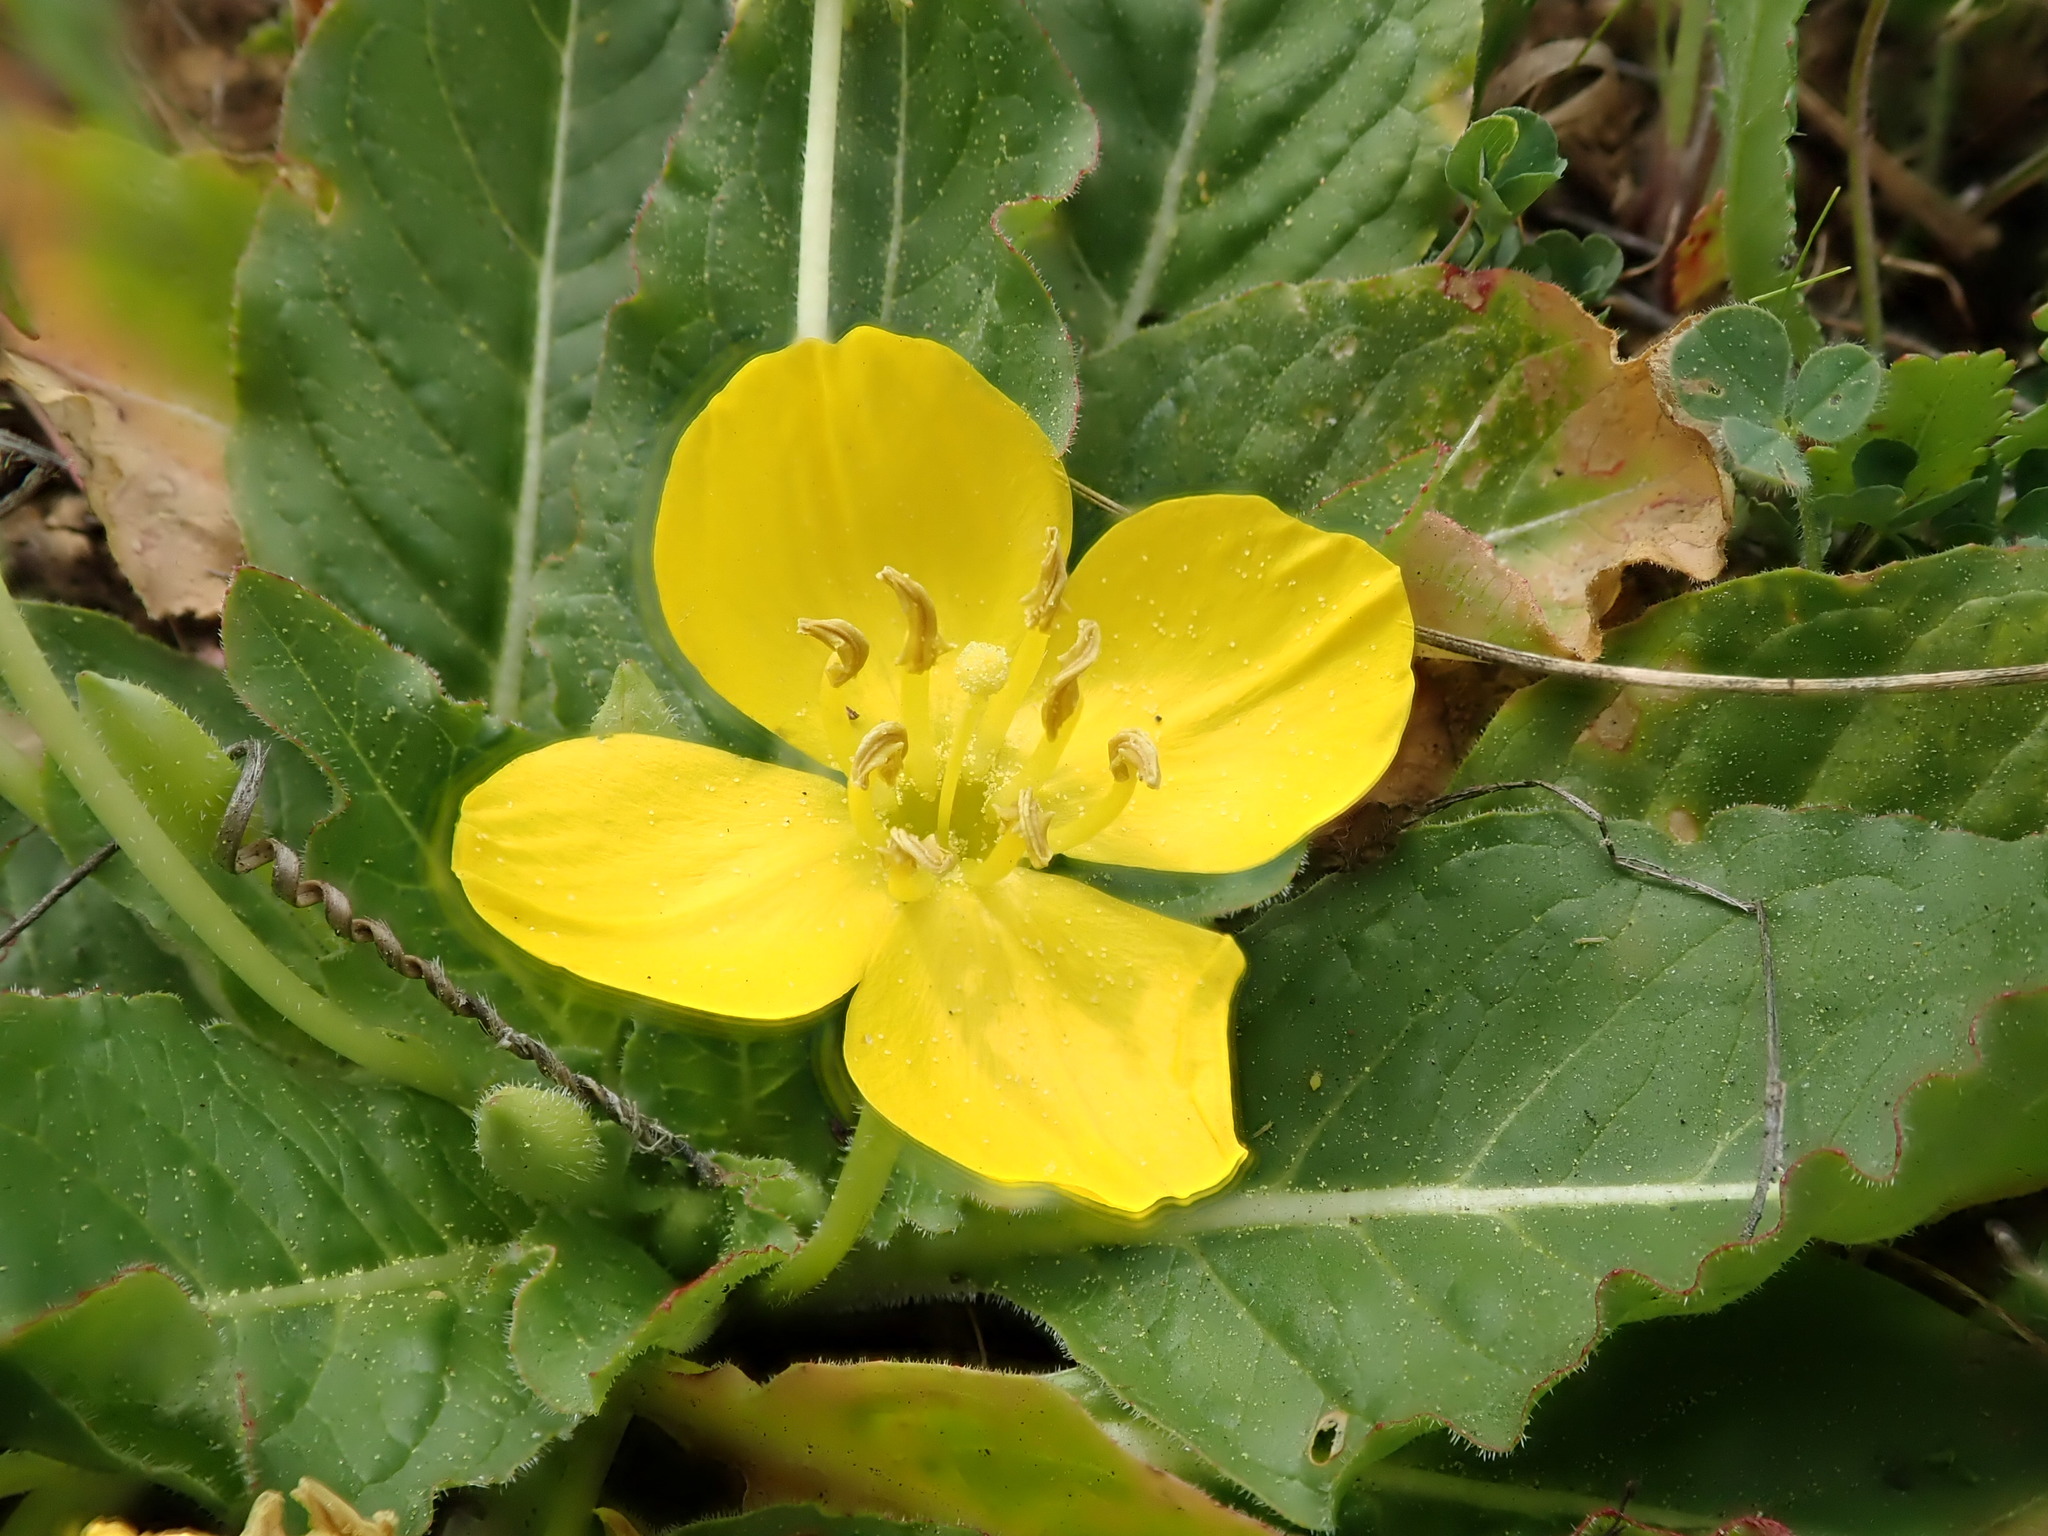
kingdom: Plantae
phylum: Tracheophyta
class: Magnoliopsida
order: Myrtales
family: Onagraceae
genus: Taraxia
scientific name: Taraxia ovata
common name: Goldeneggs
